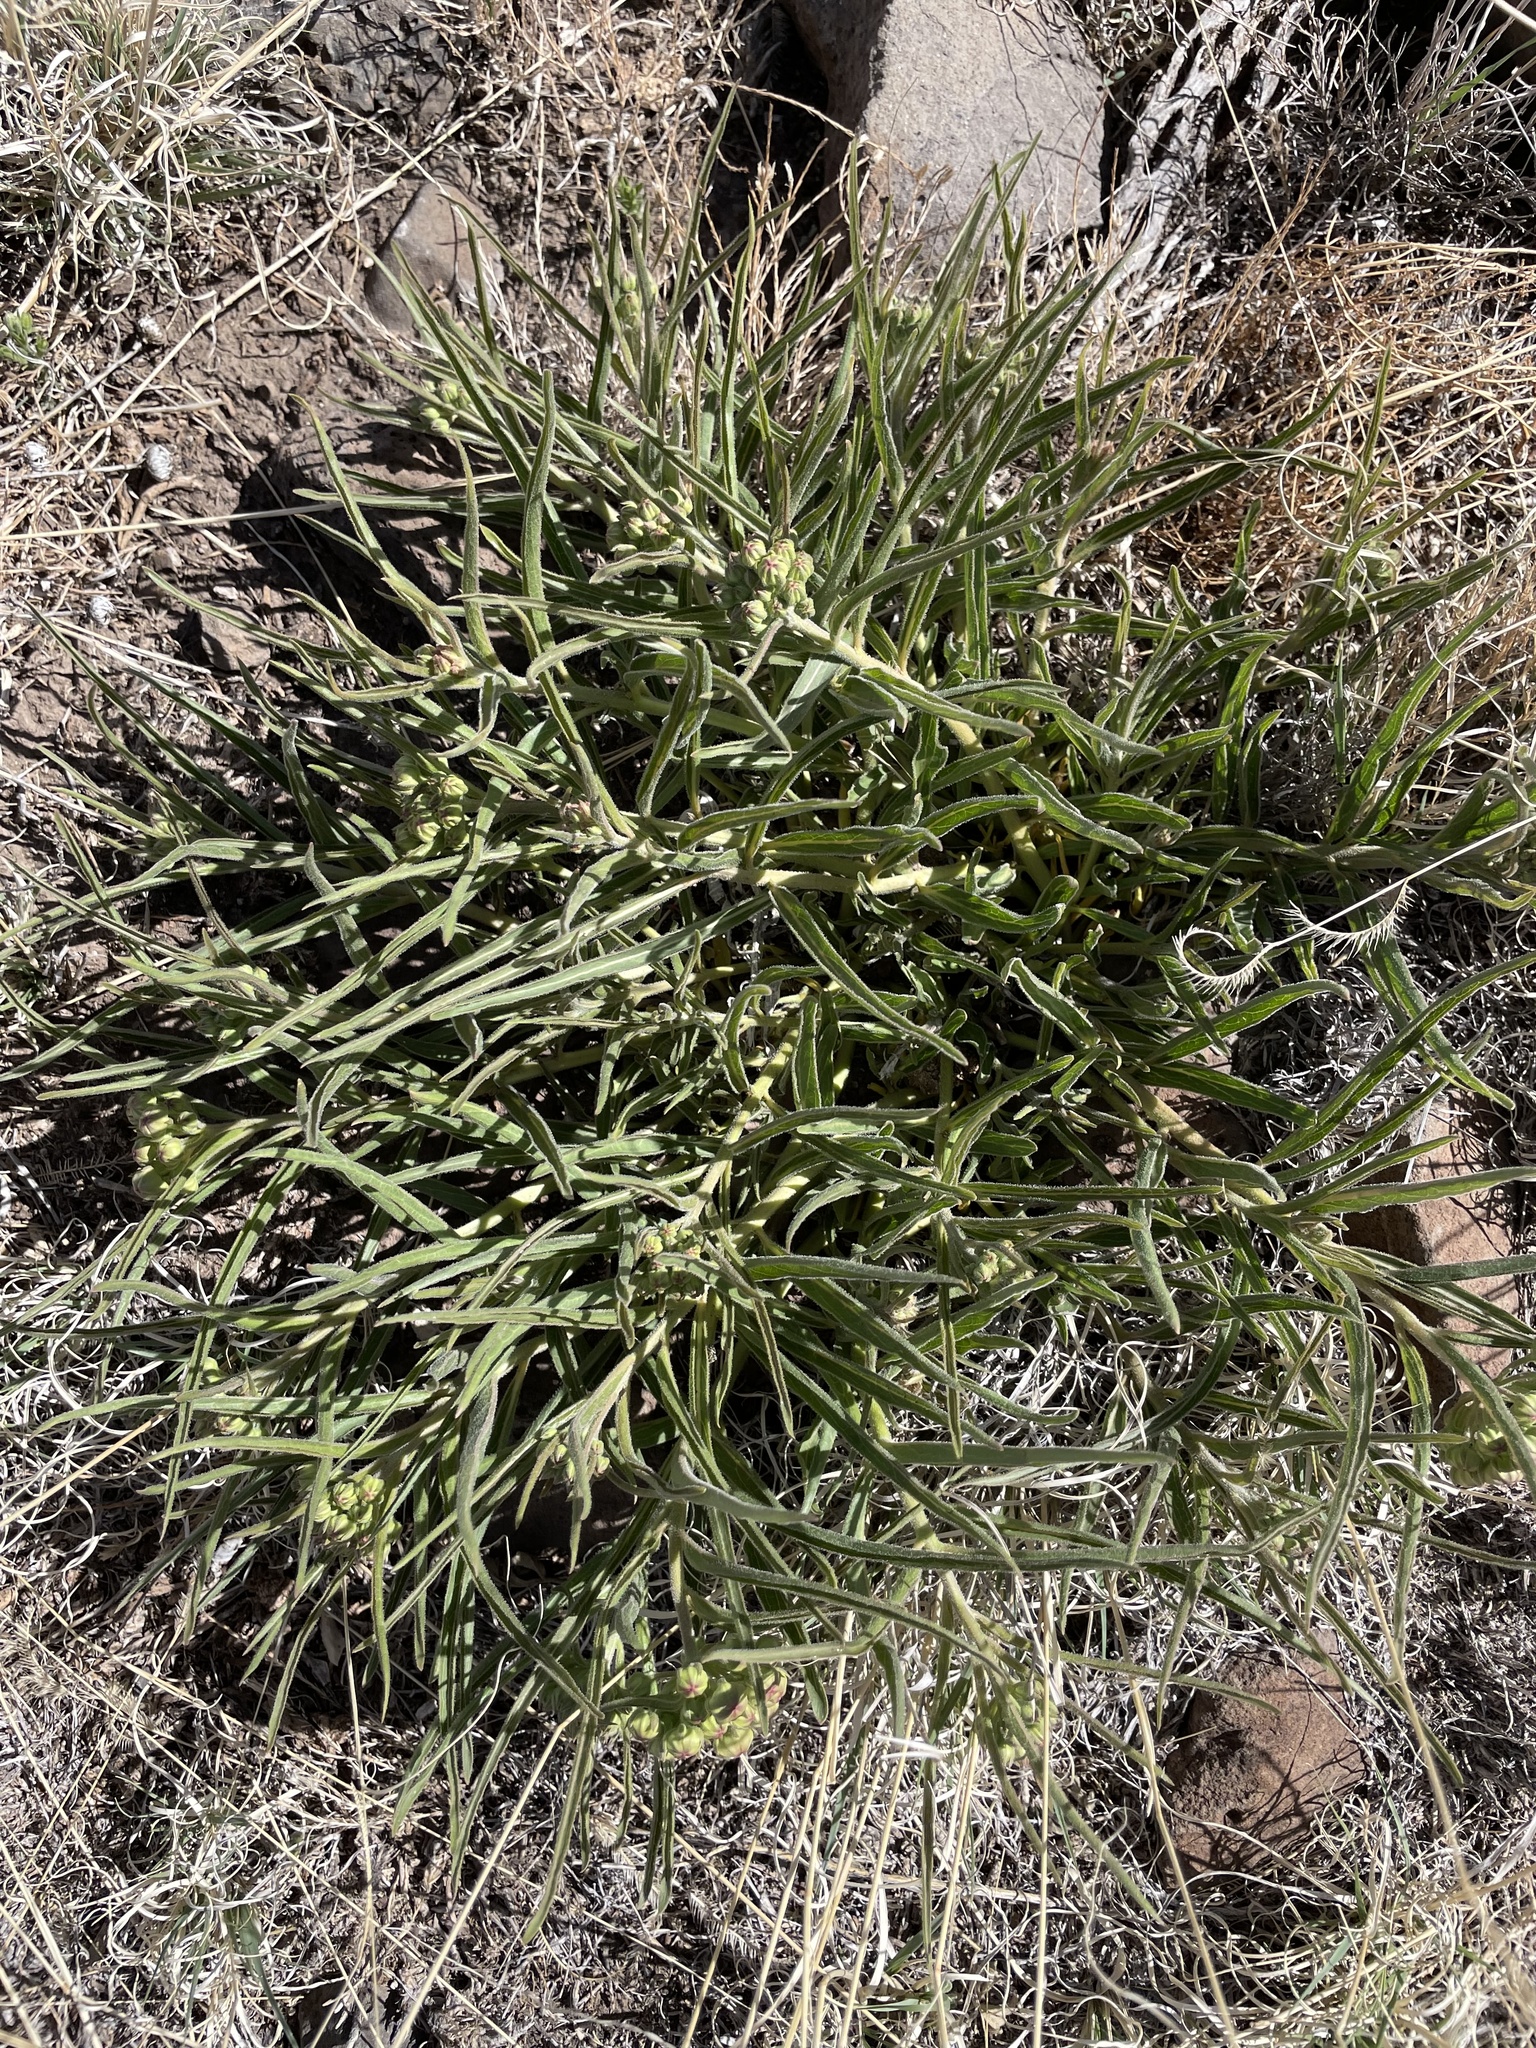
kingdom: Plantae
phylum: Tracheophyta
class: Magnoliopsida
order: Gentianales
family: Apocynaceae
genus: Asclepias
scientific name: Asclepias asperula
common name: Antelope horns
